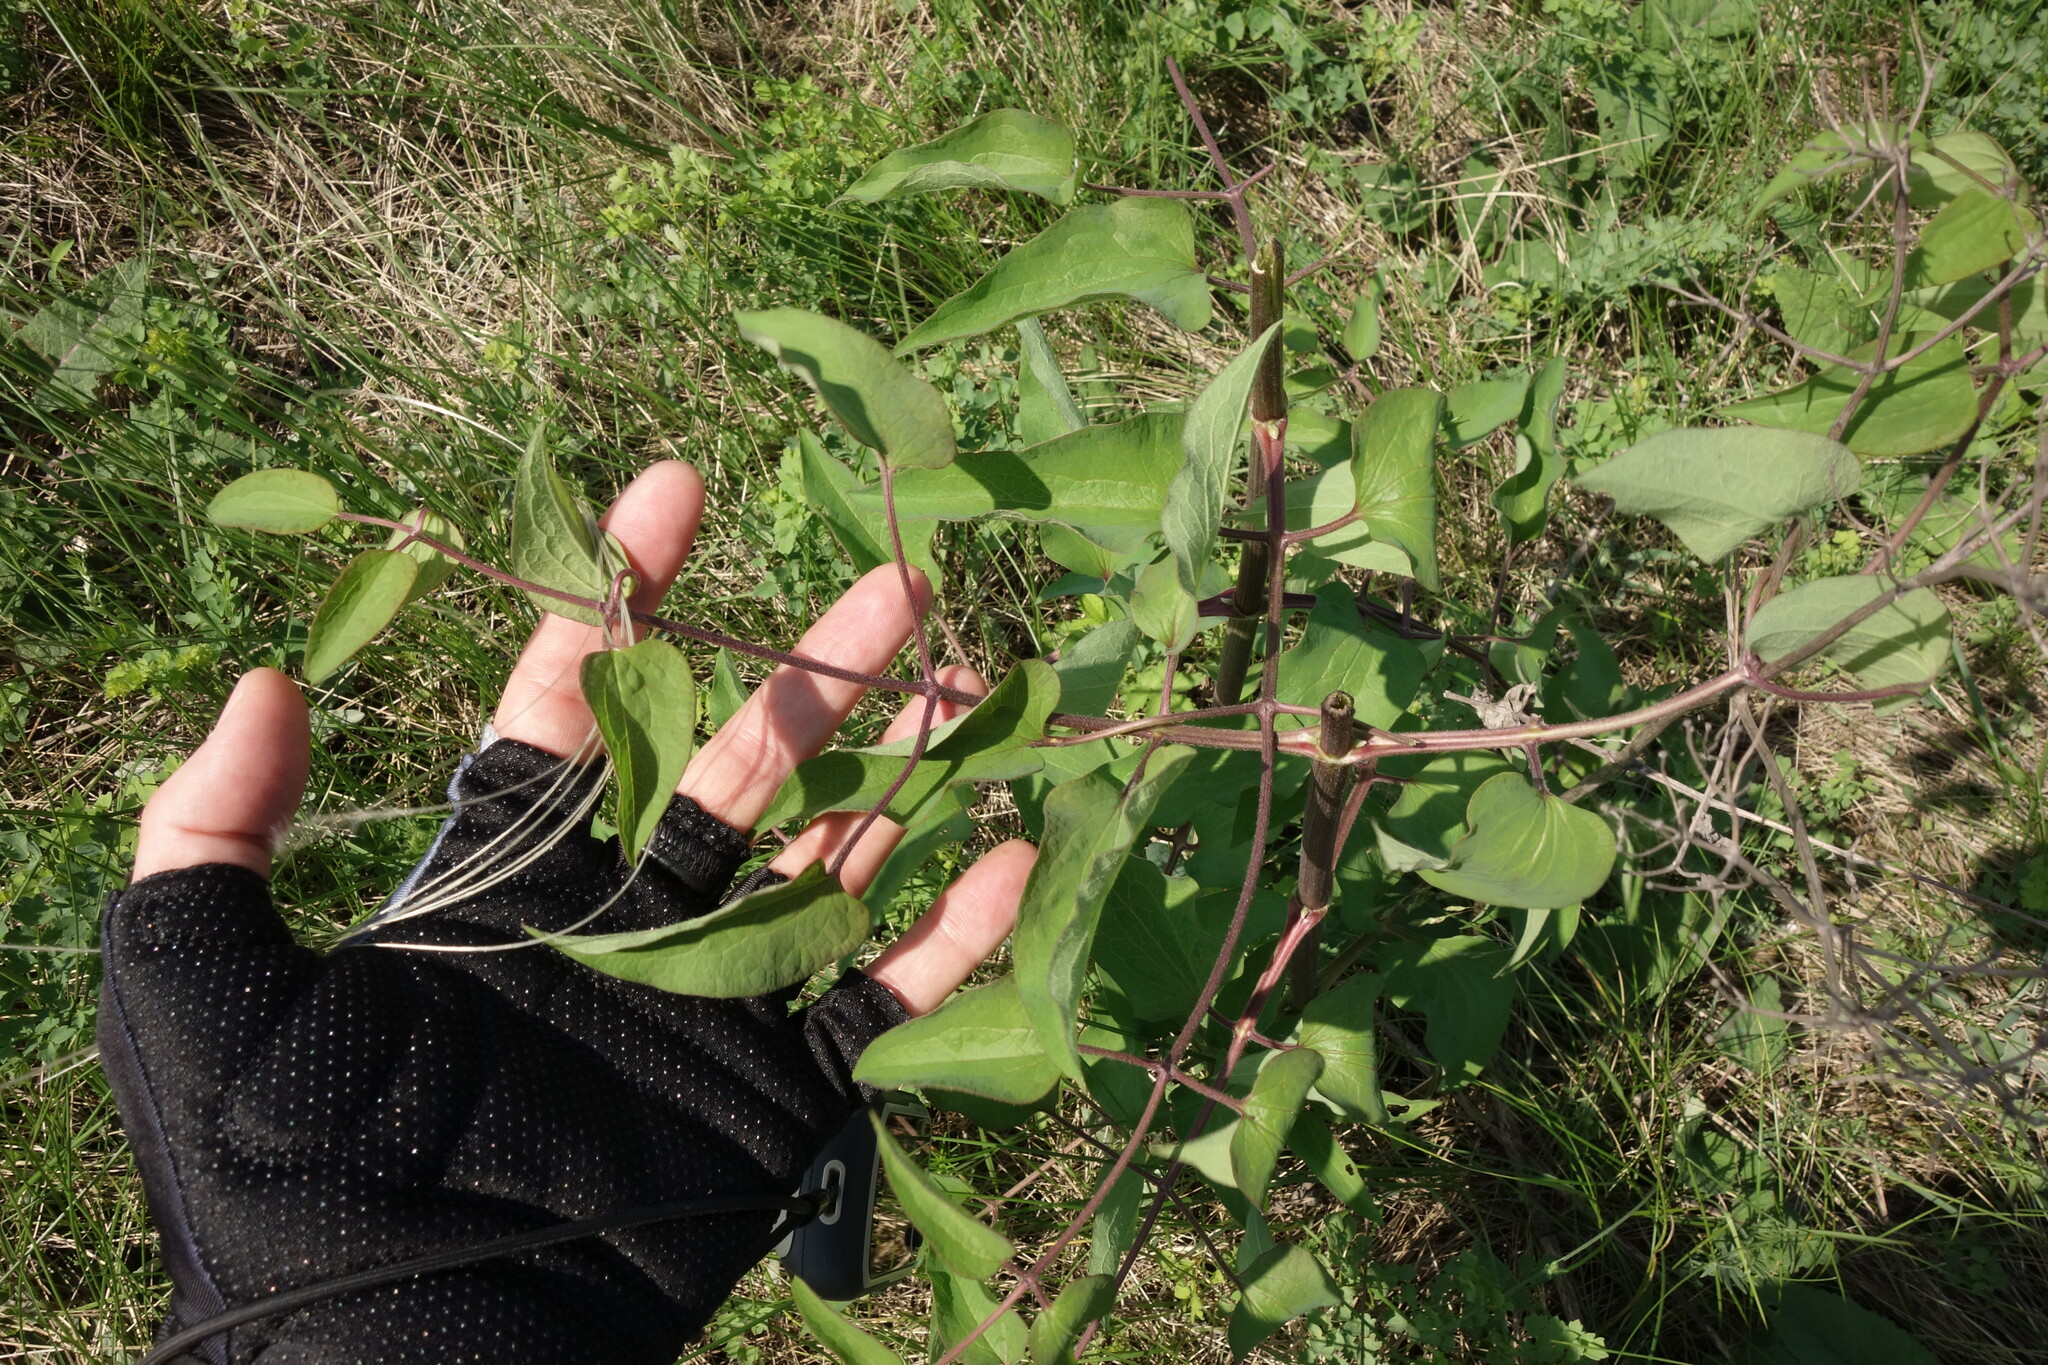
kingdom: Plantae
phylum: Tracheophyta
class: Magnoliopsida
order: Ranunculales
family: Ranunculaceae
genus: Clematis
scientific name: Clematis recta
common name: Ground clematis
